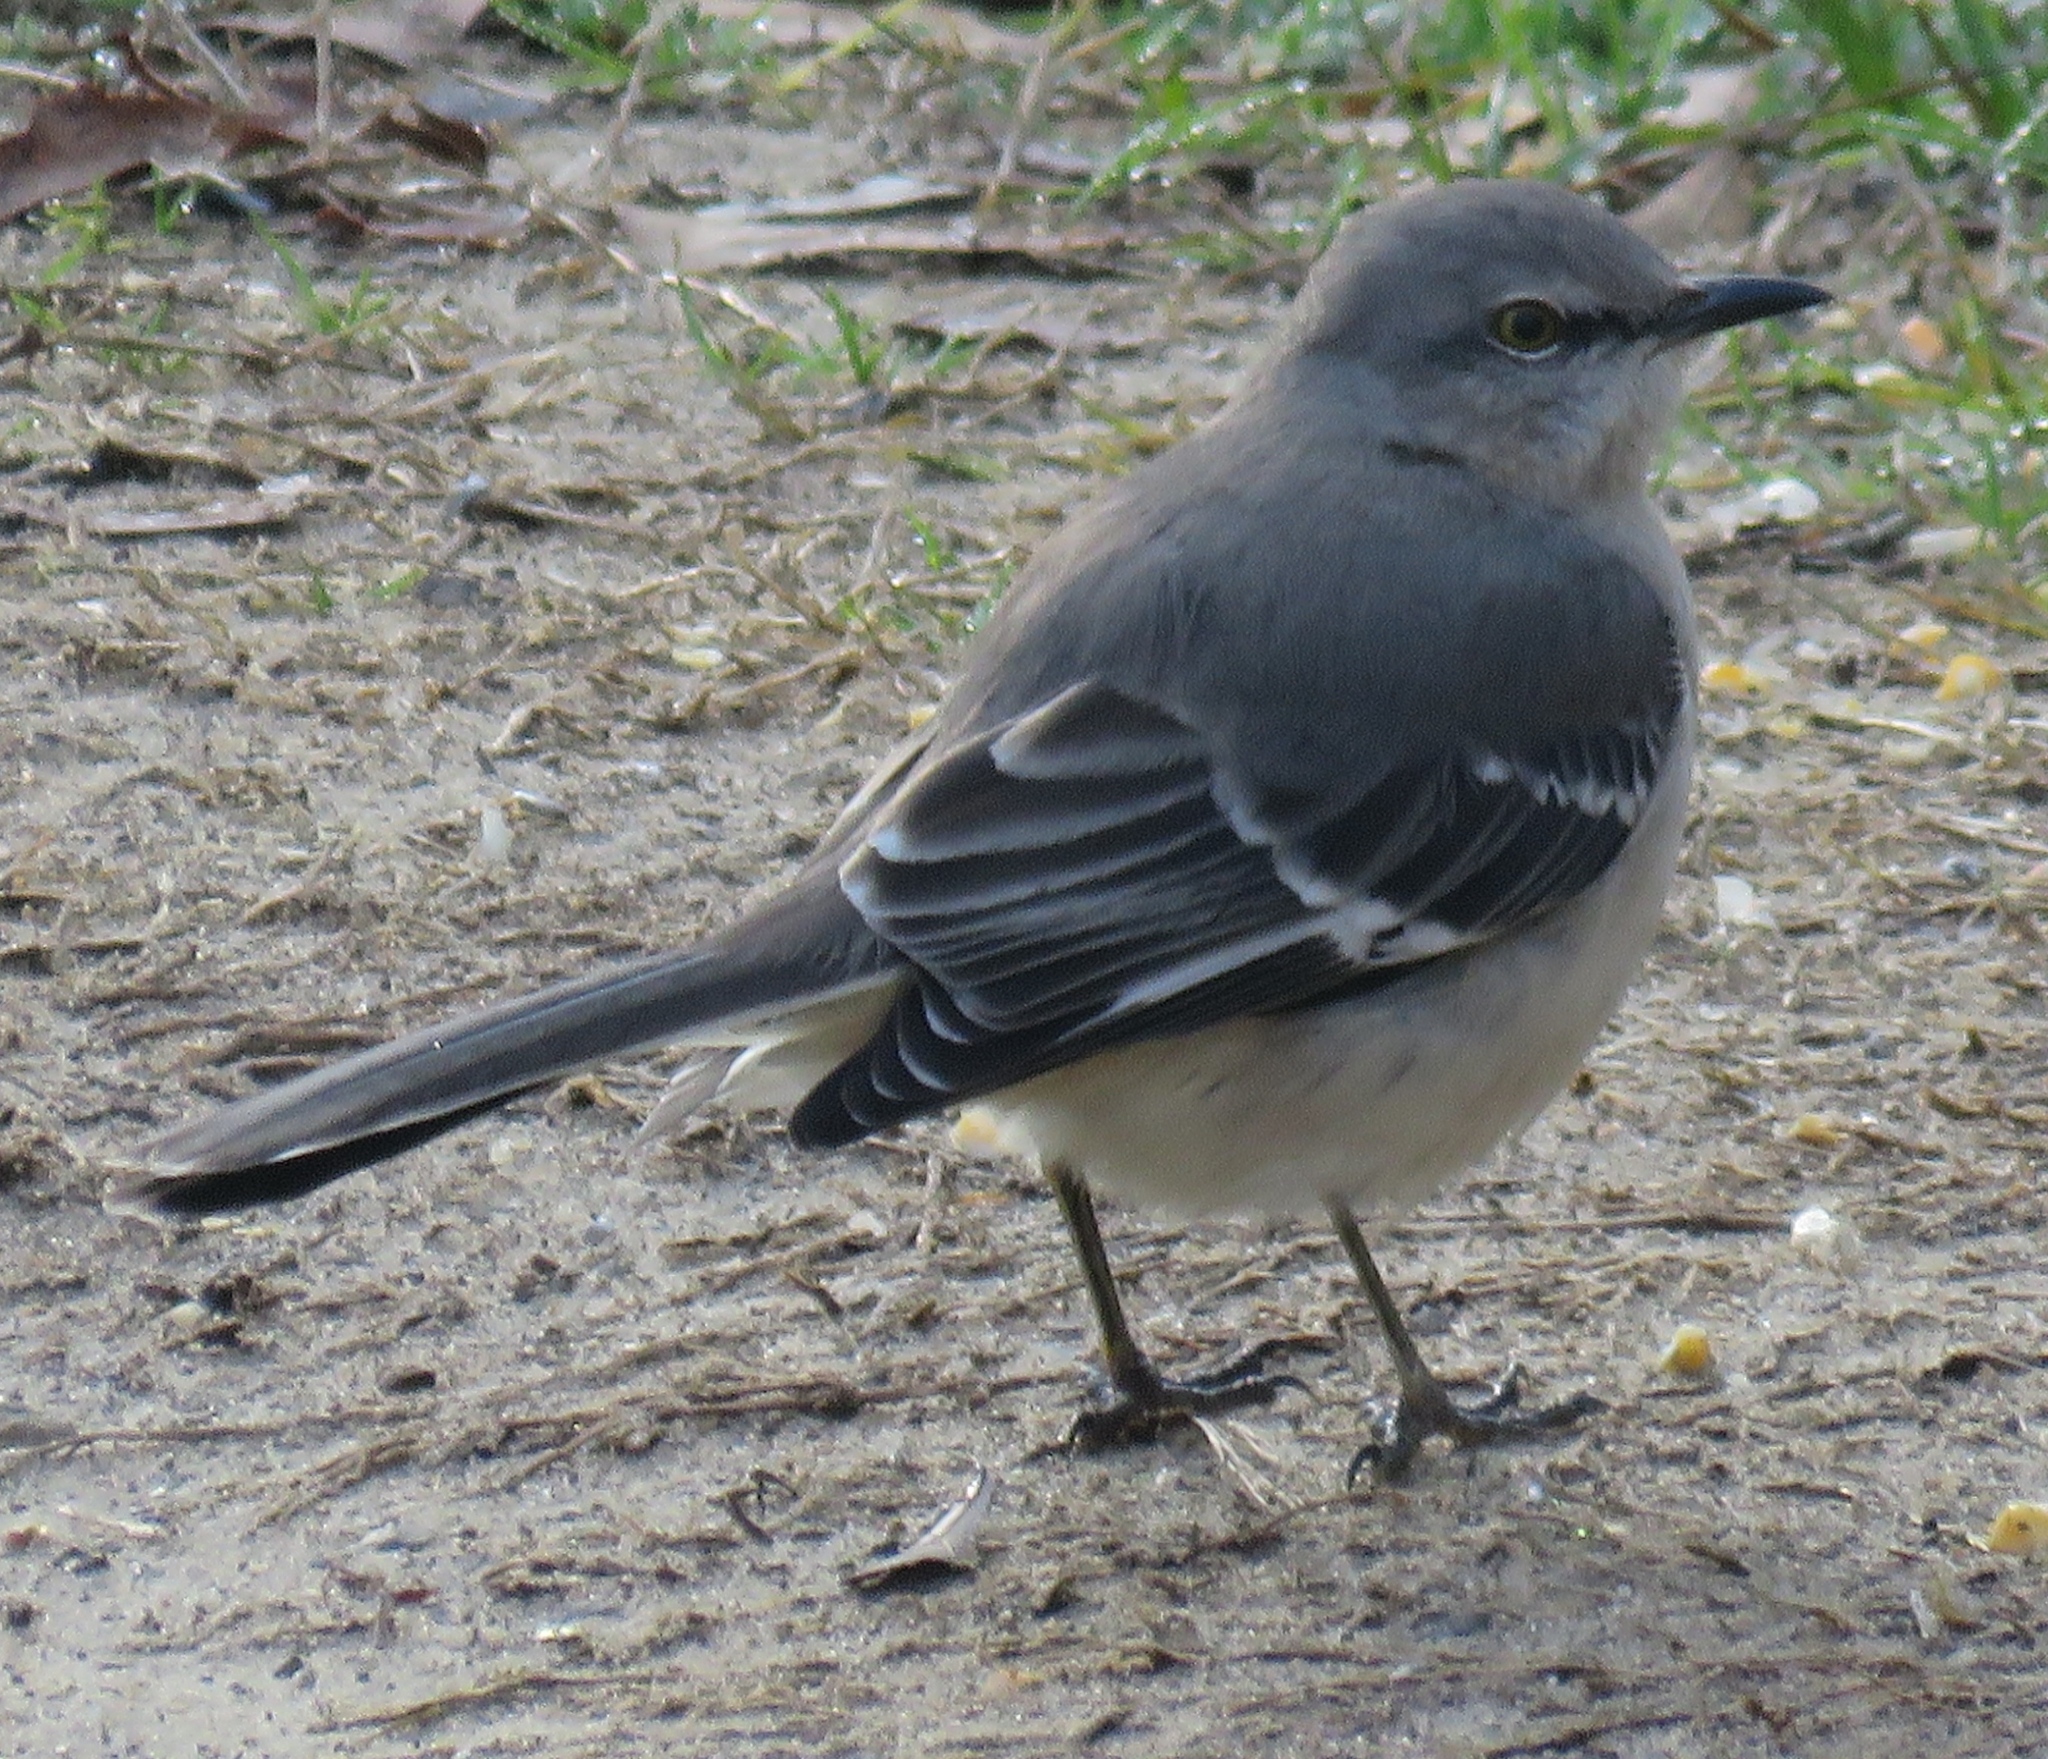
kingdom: Animalia
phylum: Chordata
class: Aves
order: Passeriformes
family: Mimidae
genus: Mimus
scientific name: Mimus polyglottos
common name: Northern mockingbird
